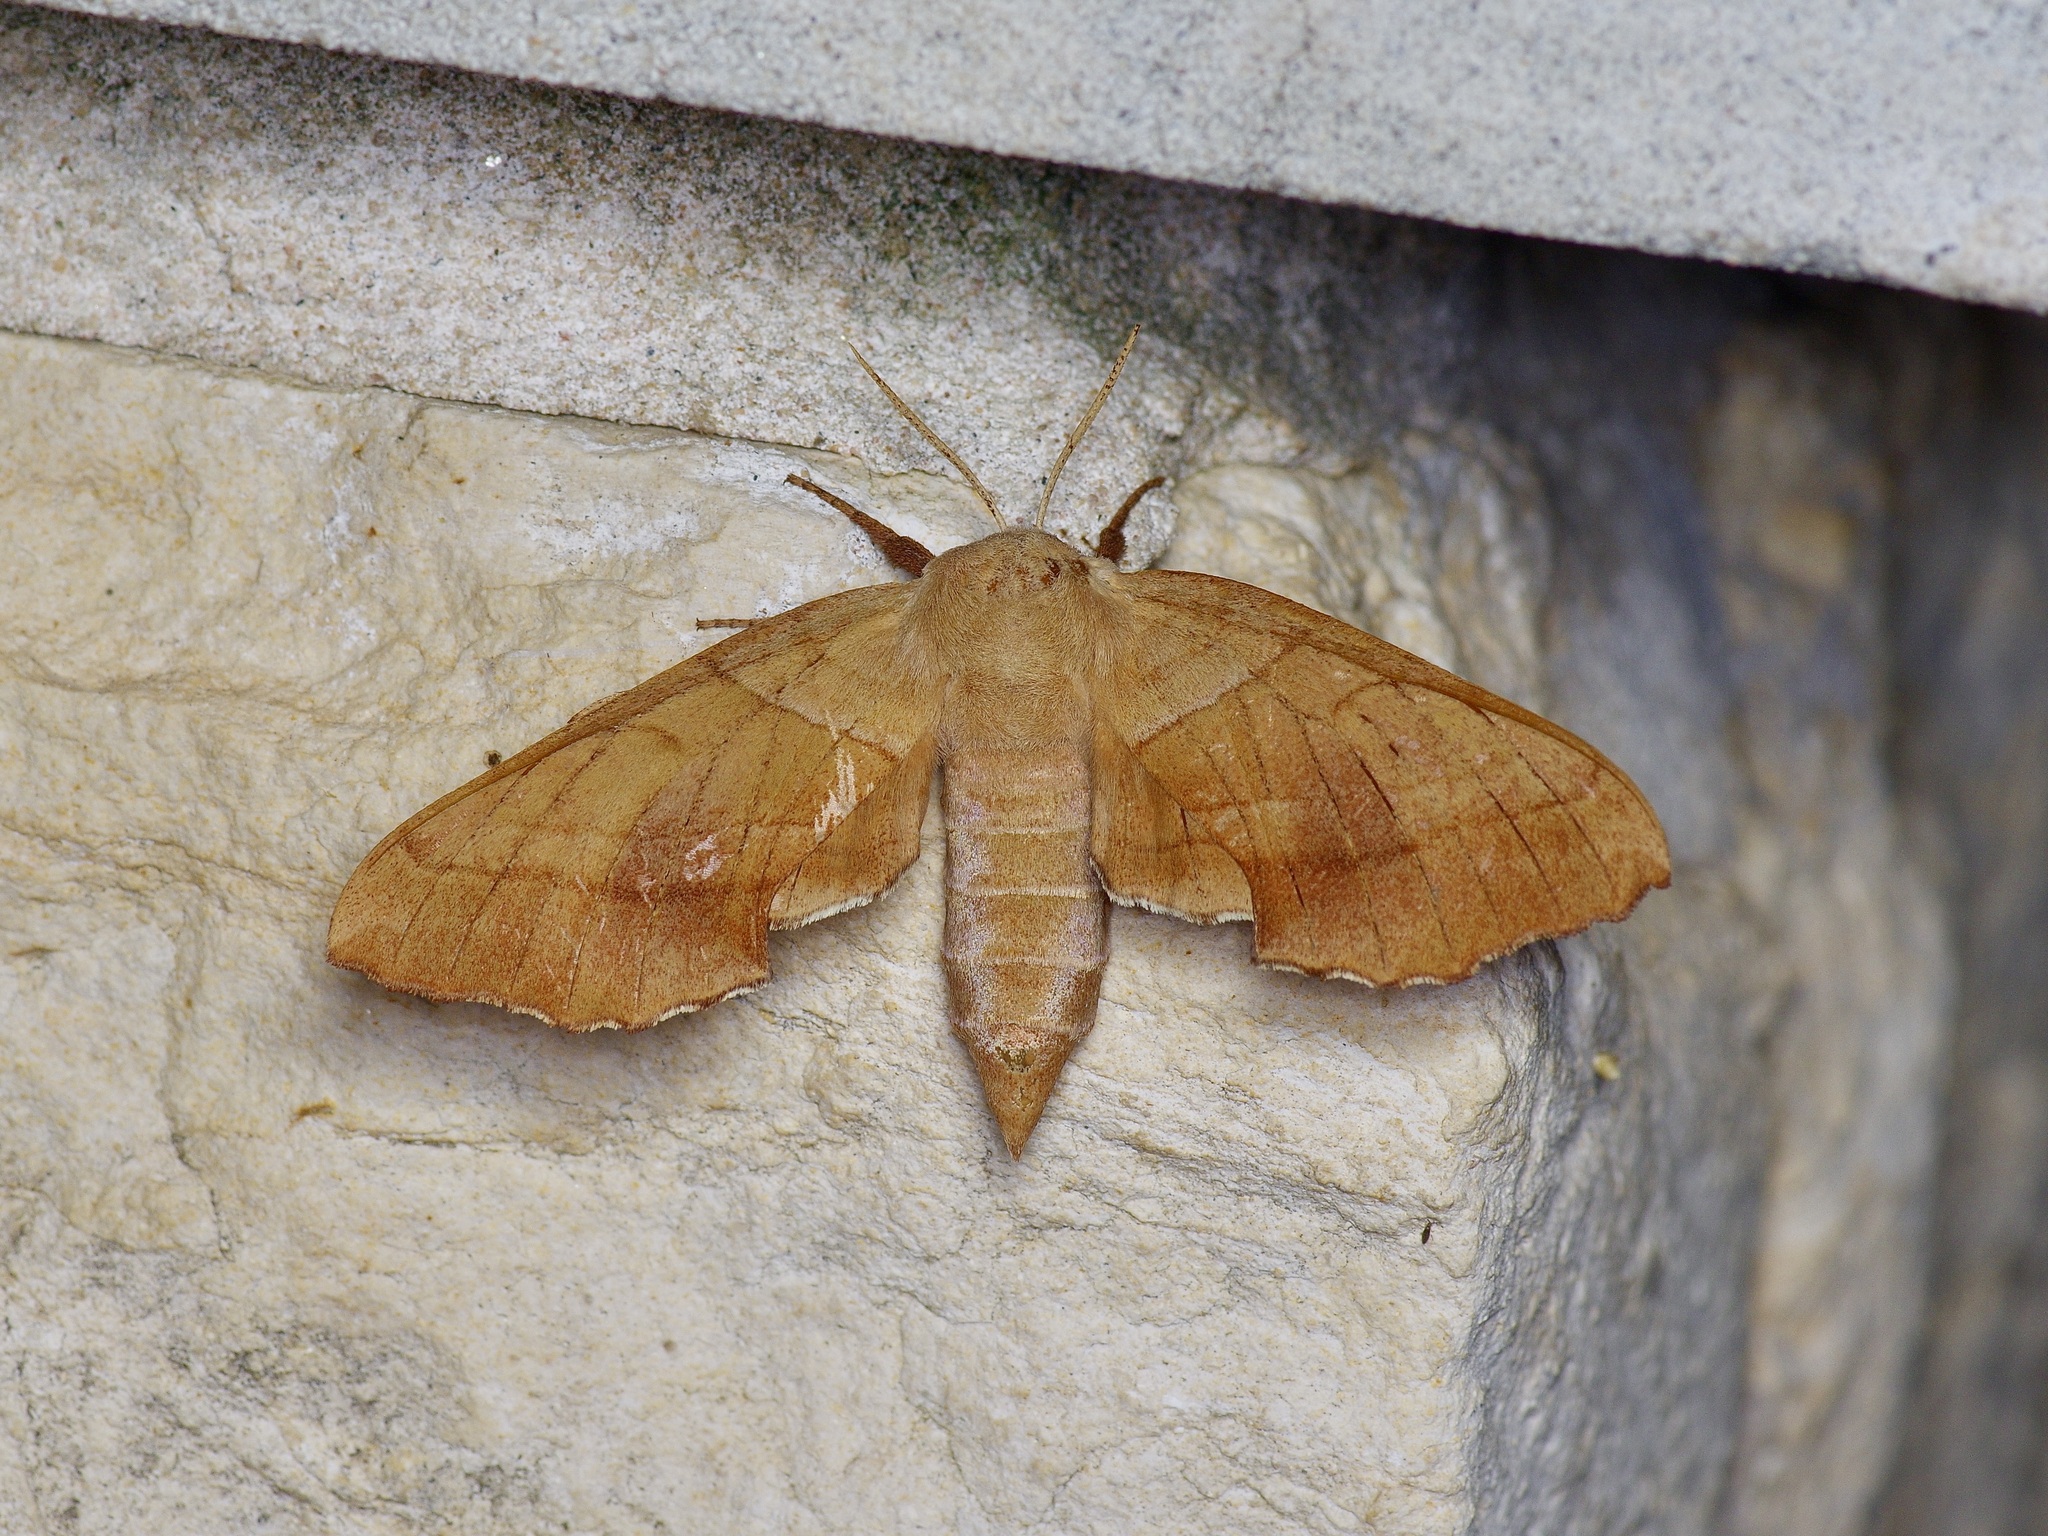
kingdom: Animalia
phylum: Arthropoda
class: Insecta
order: Lepidoptera
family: Sphingidae
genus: Amorpha
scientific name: Amorpha juglandis
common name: Walnut sphinx
